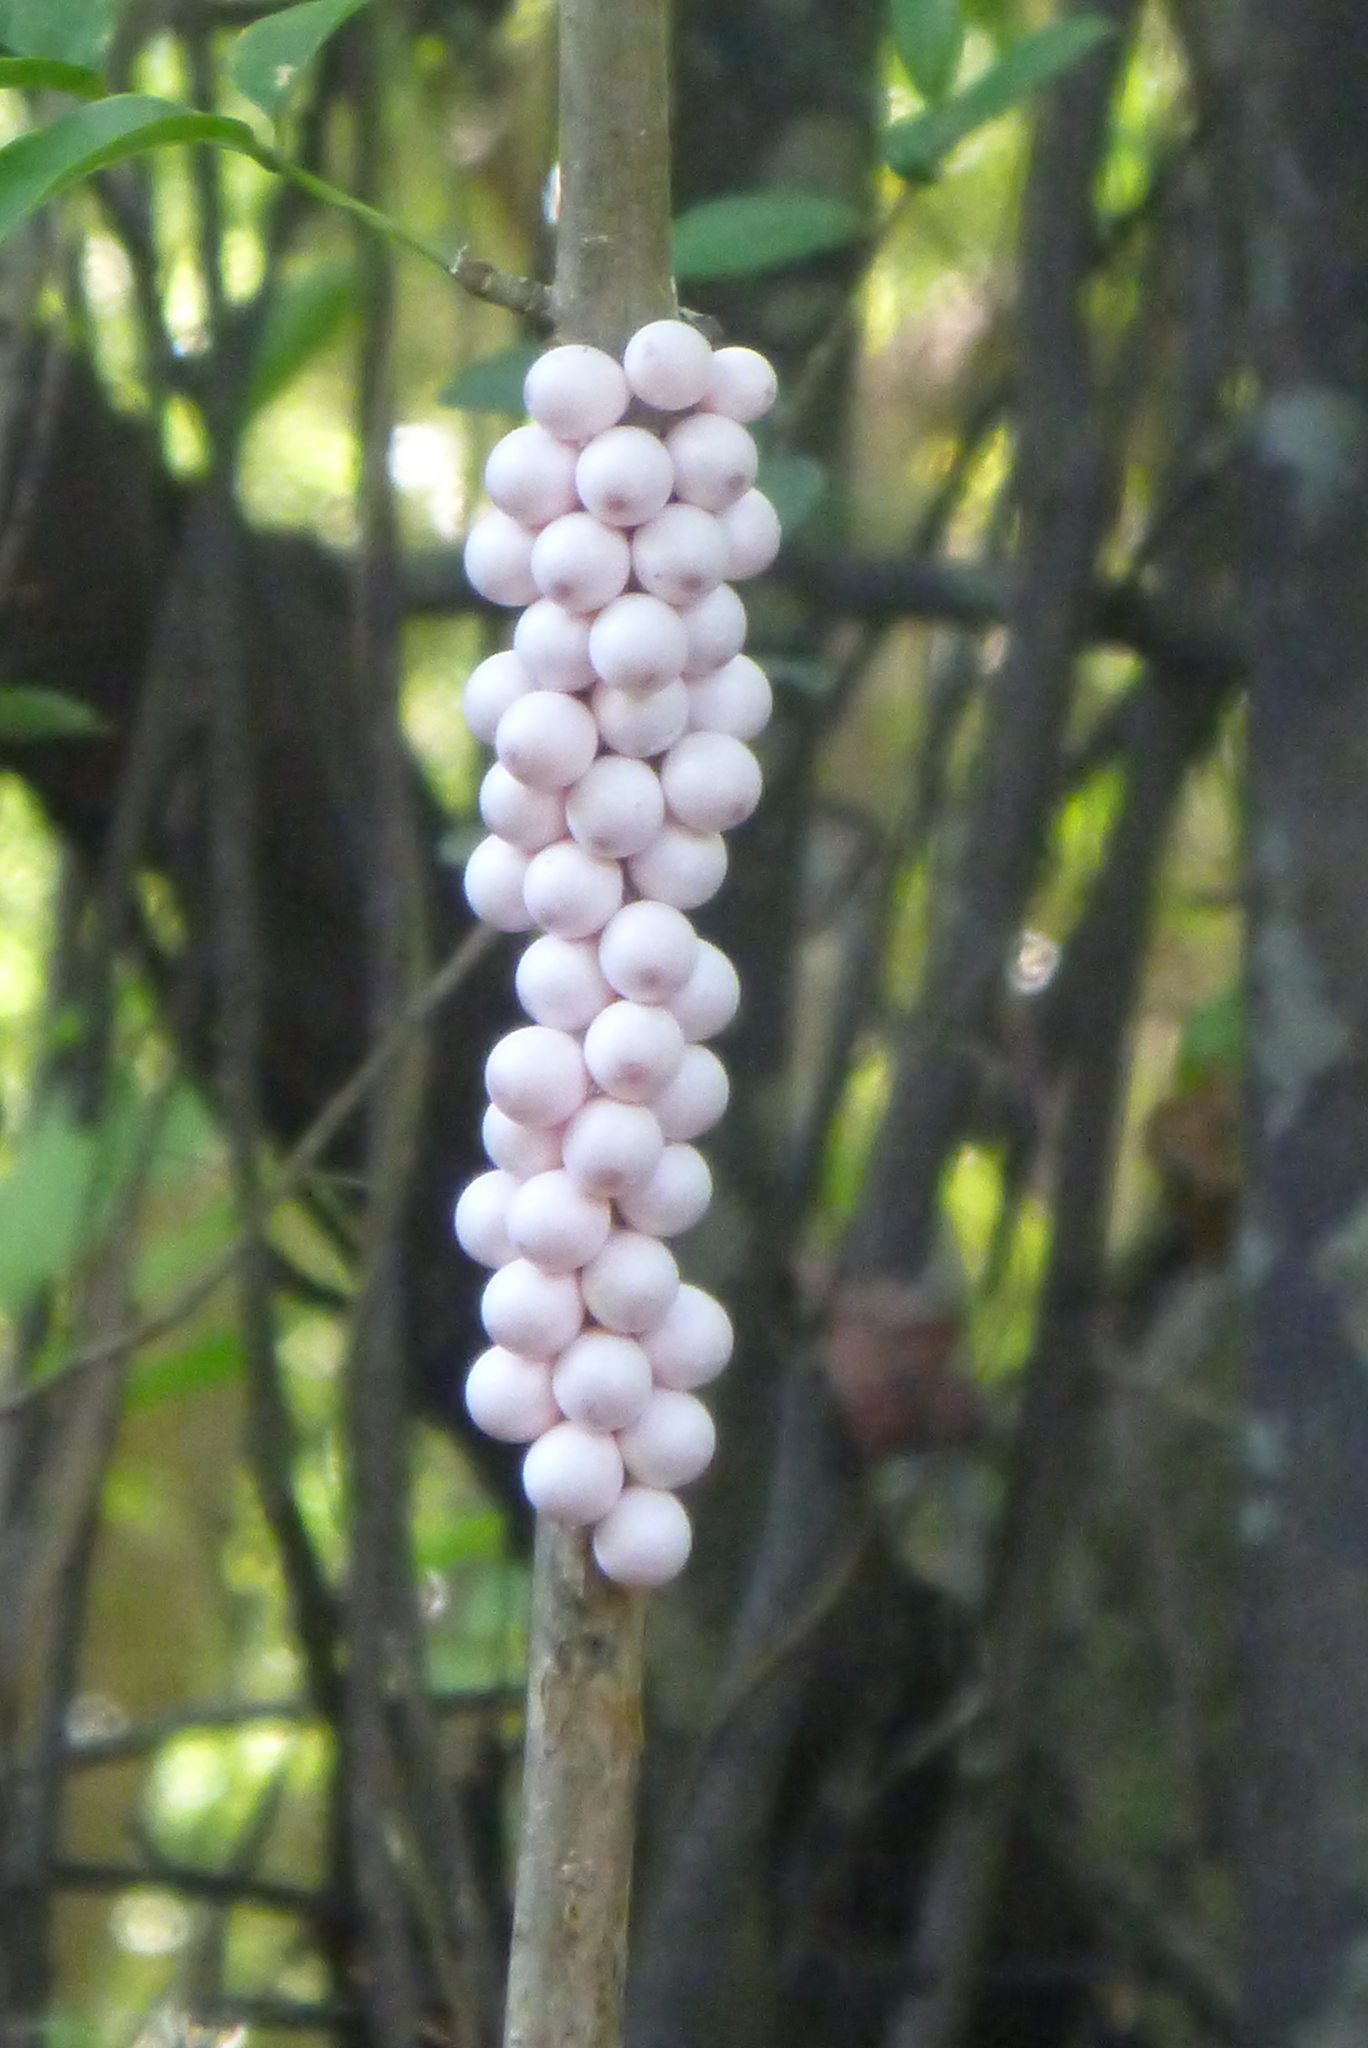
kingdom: Animalia
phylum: Mollusca
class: Gastropoda
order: Architaenioglossa
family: Ampullariidae
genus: Pomacea
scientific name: Pomacea paludosa
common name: Florida applesnail
